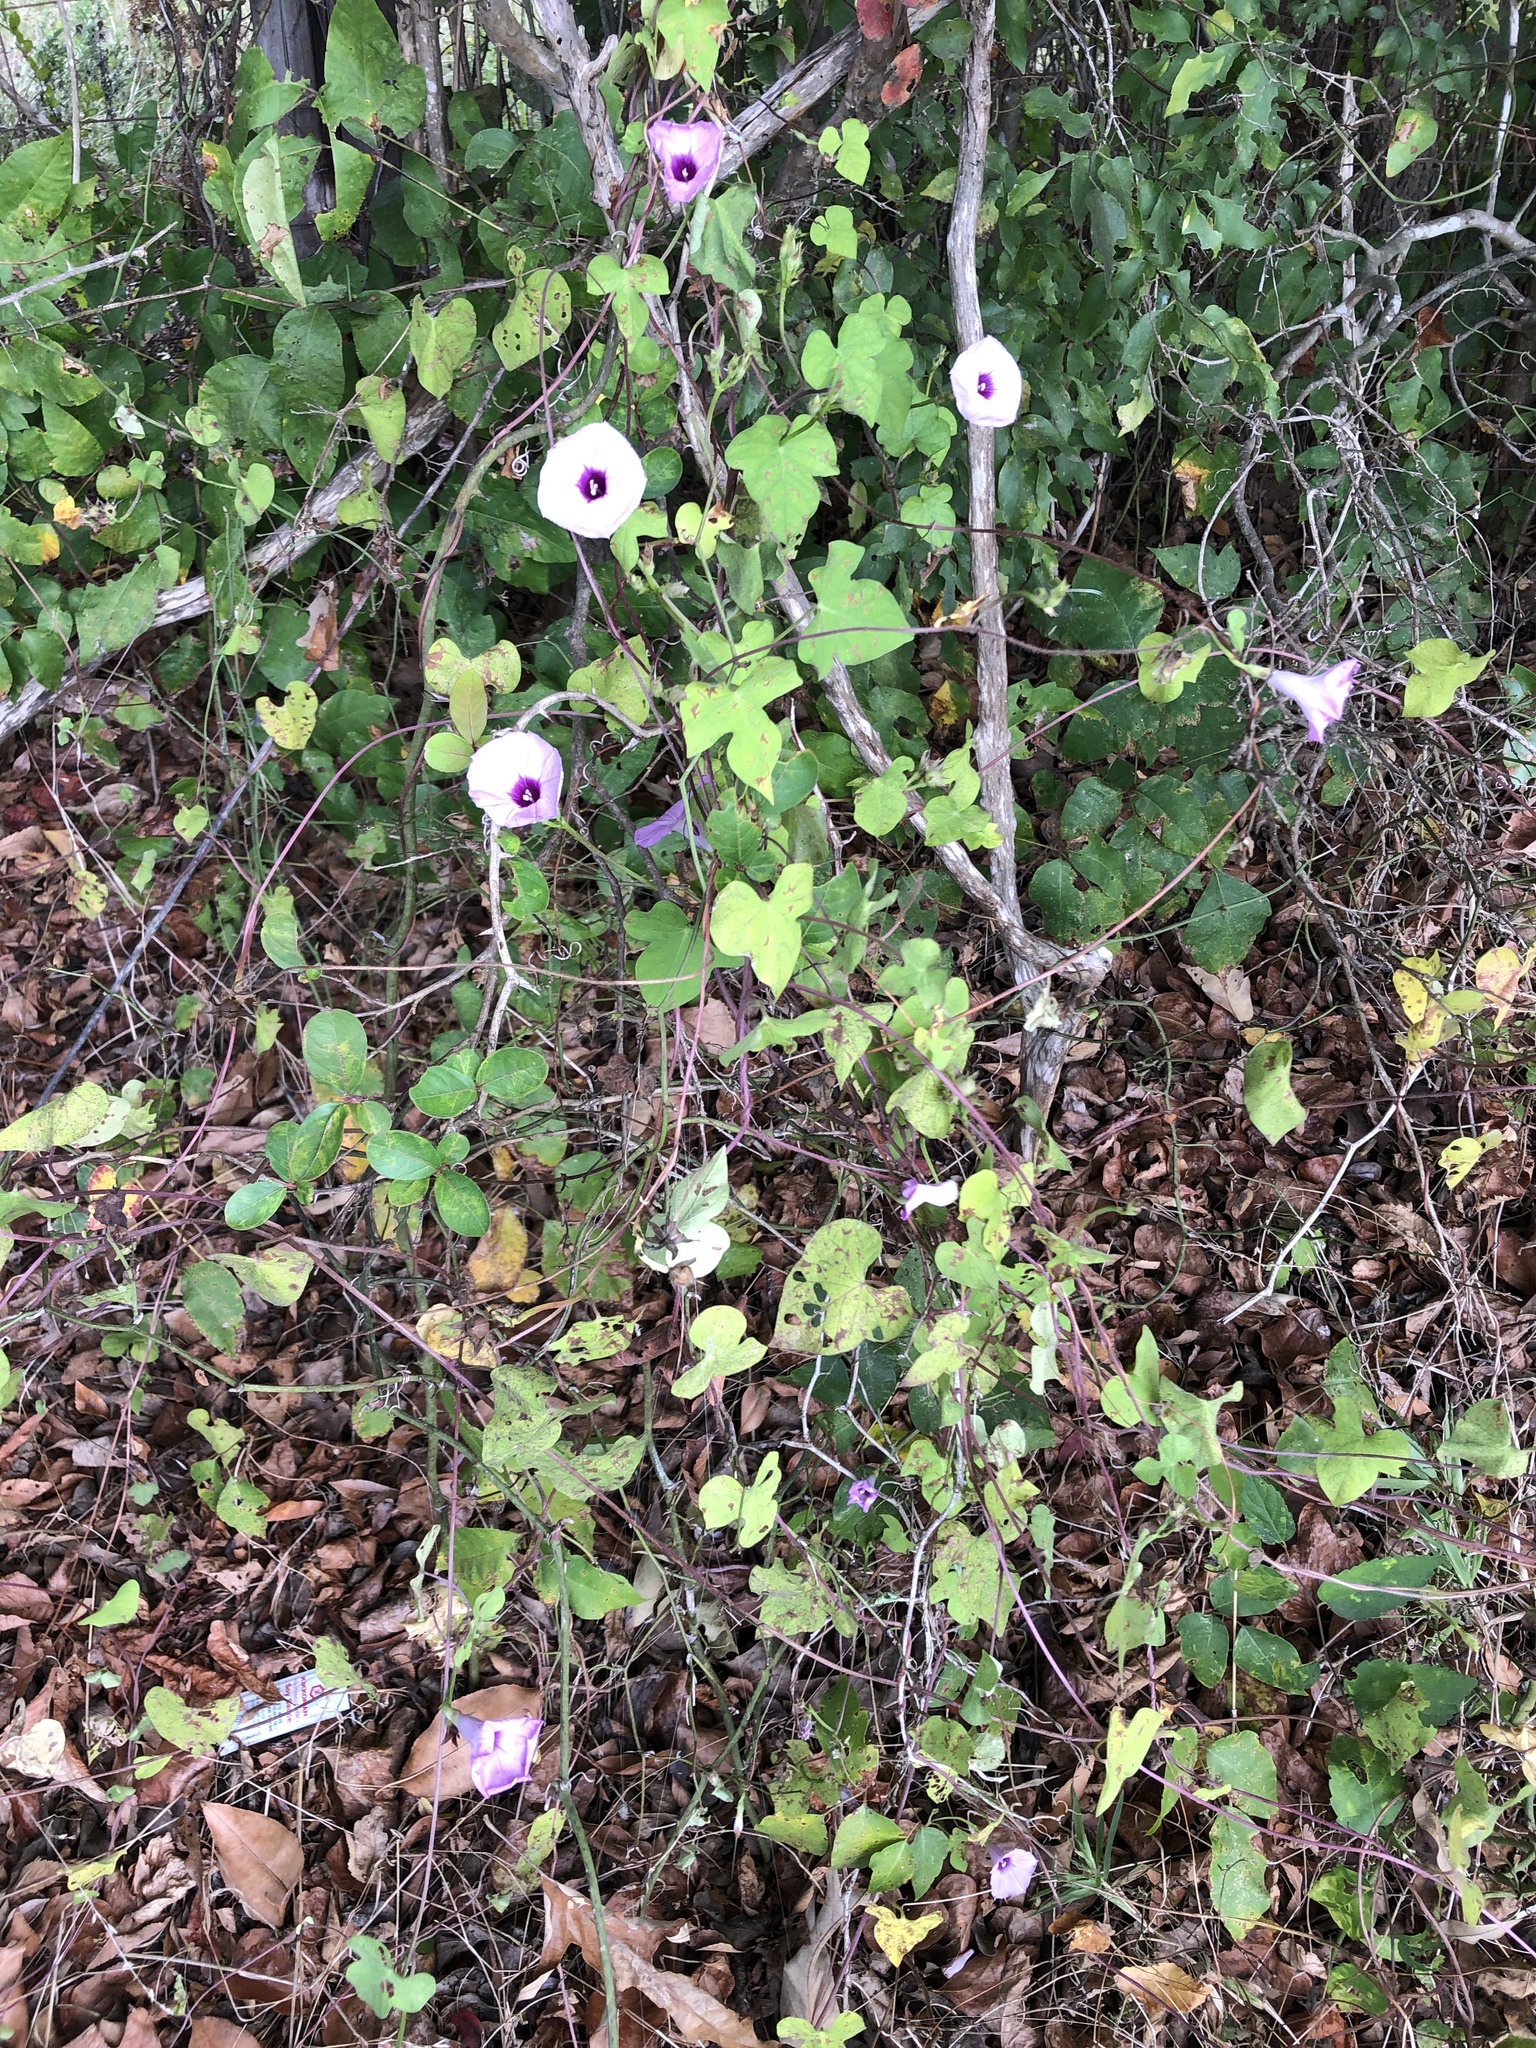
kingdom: Plantae
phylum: Tracheophyta
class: Magnoliopsida
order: Solanales
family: Convolvulaceae
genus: Ipomoea
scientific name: Ipomoea cordatotriloba
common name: Cotton morning glory
